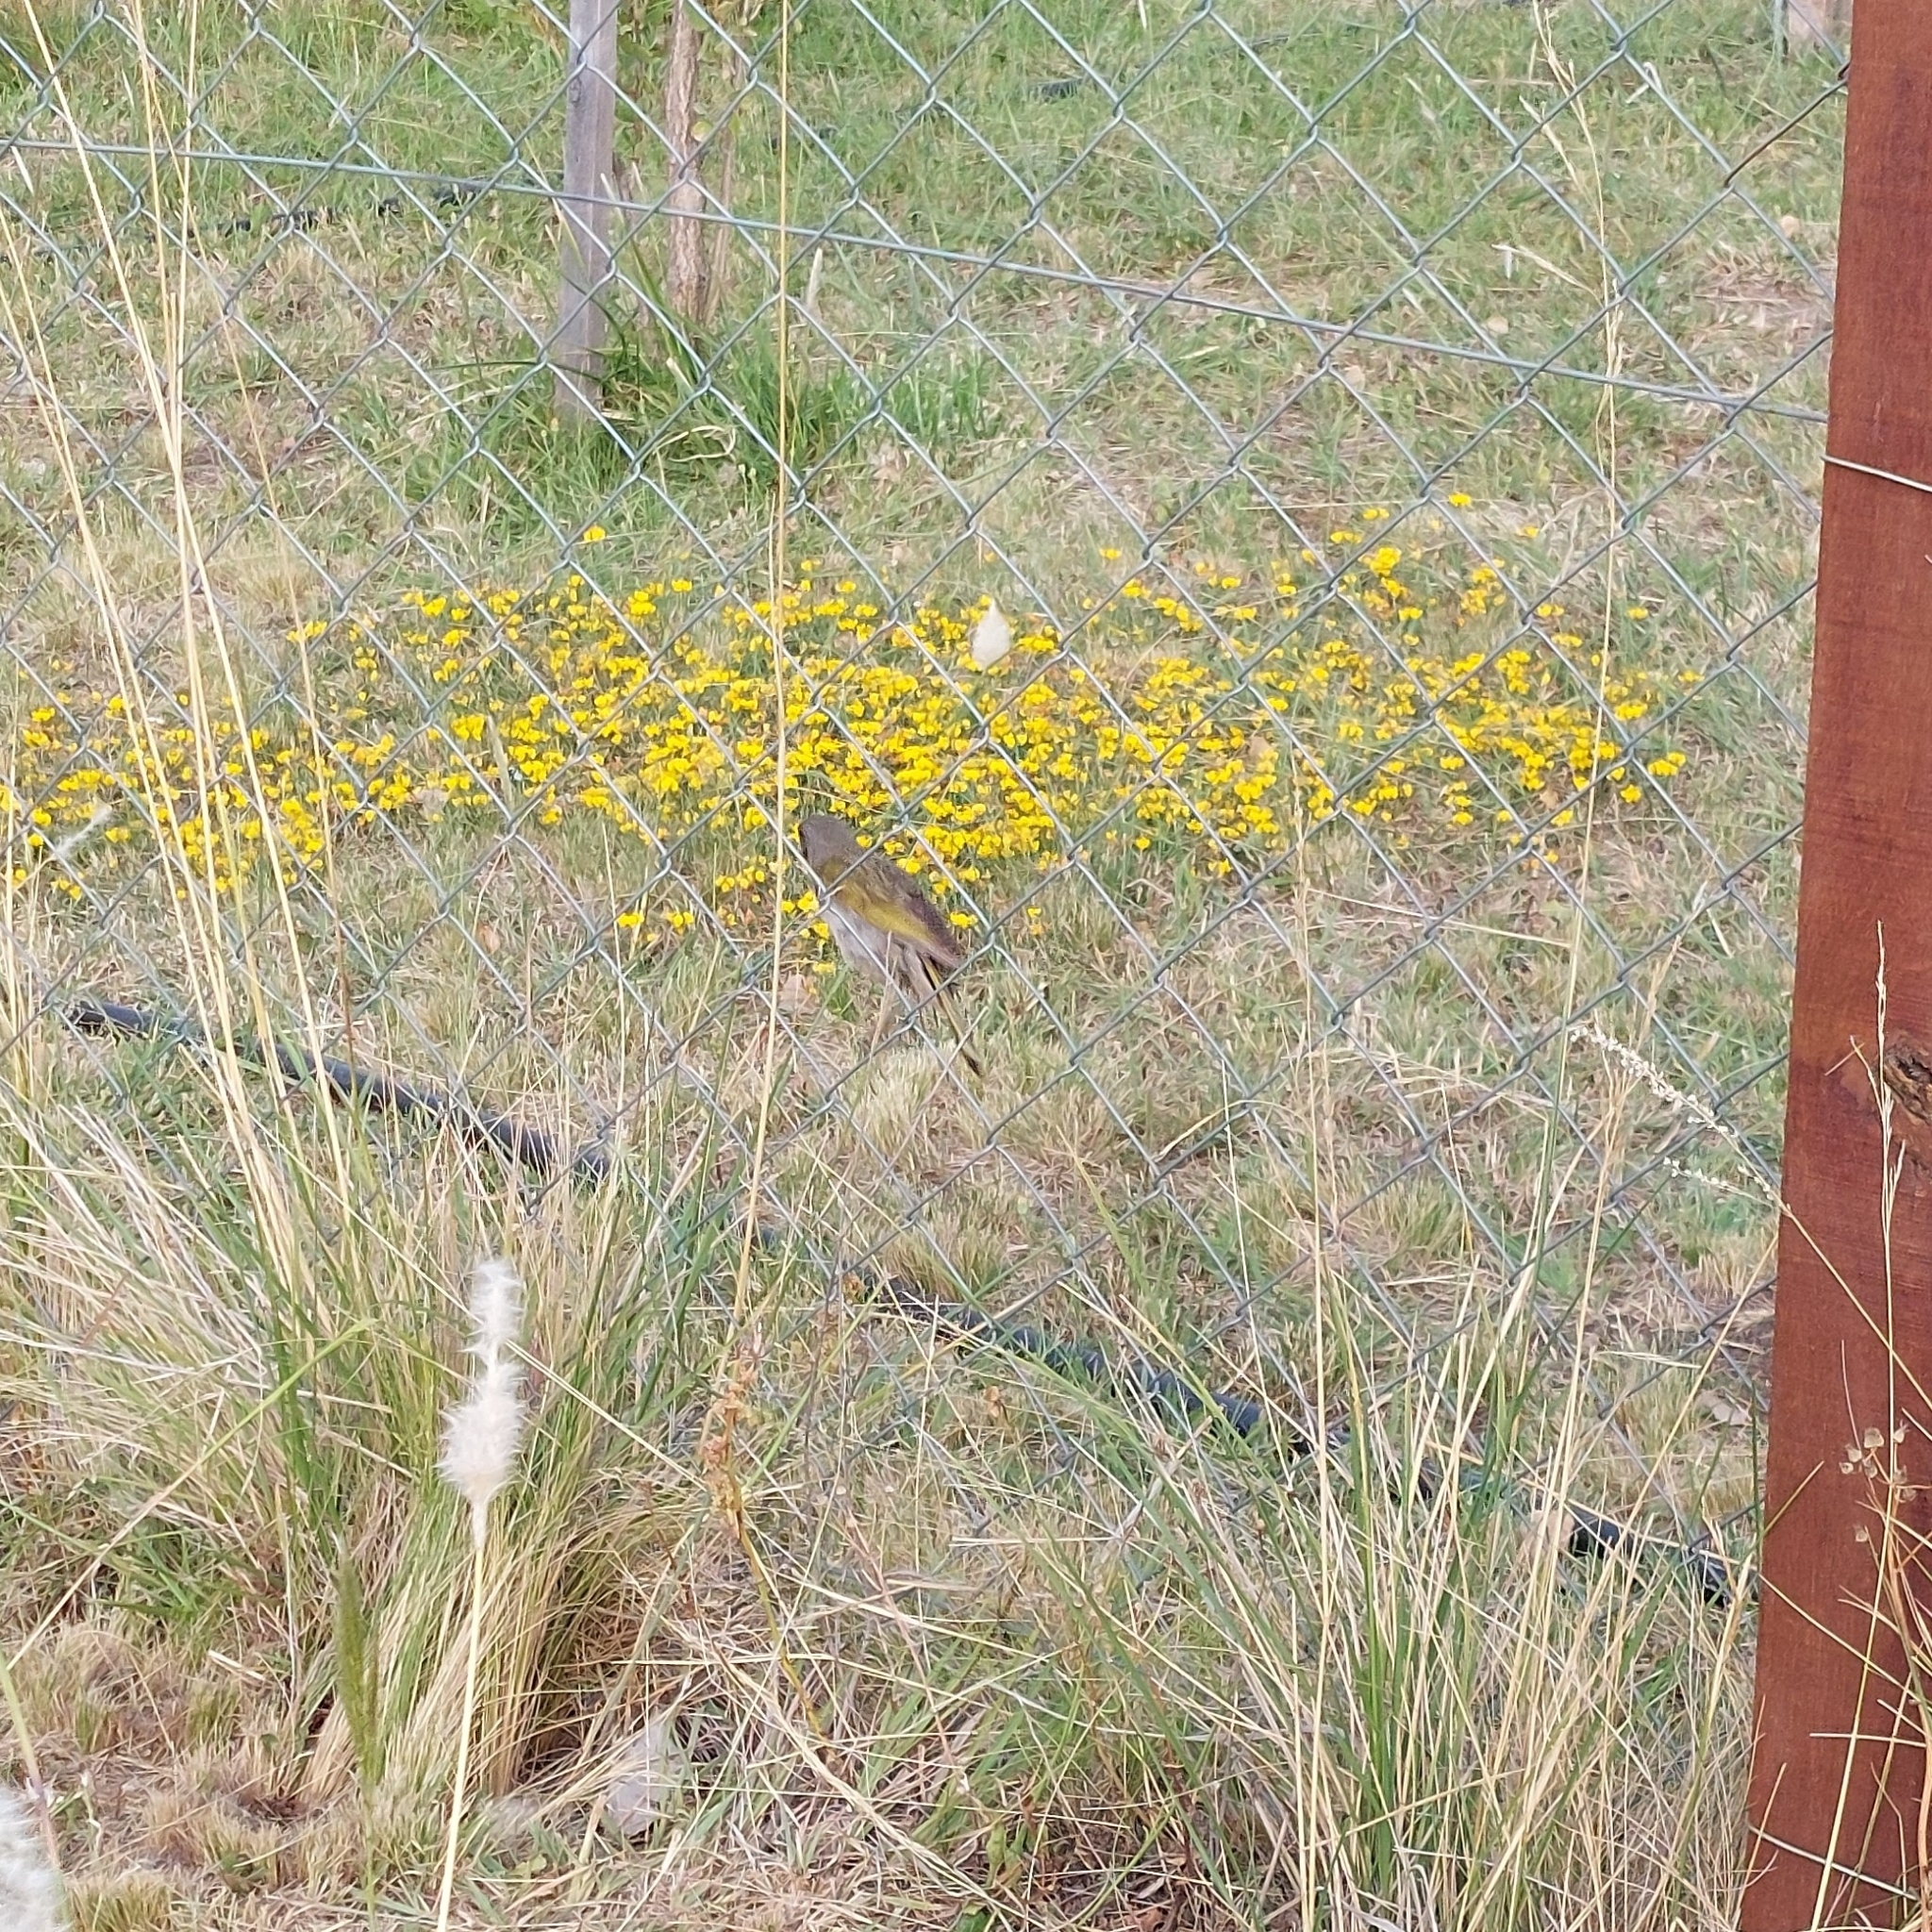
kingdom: Animalia
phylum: Chordata
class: Aves
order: Passeriformes
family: Thraupidae
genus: Embernagra
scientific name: Embernagra platensis
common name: Pampa finch
